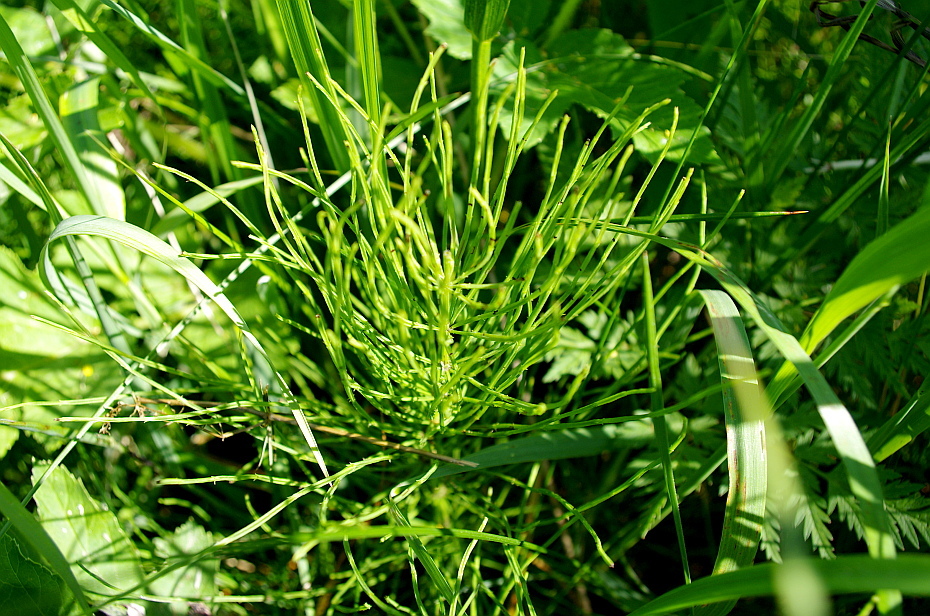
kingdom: Plantae
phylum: Tracheophyta
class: Polypodiopsida
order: Equisetales
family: Equisetaceae
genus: Equisetum
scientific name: Equisetum arvense
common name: Field horsetail
